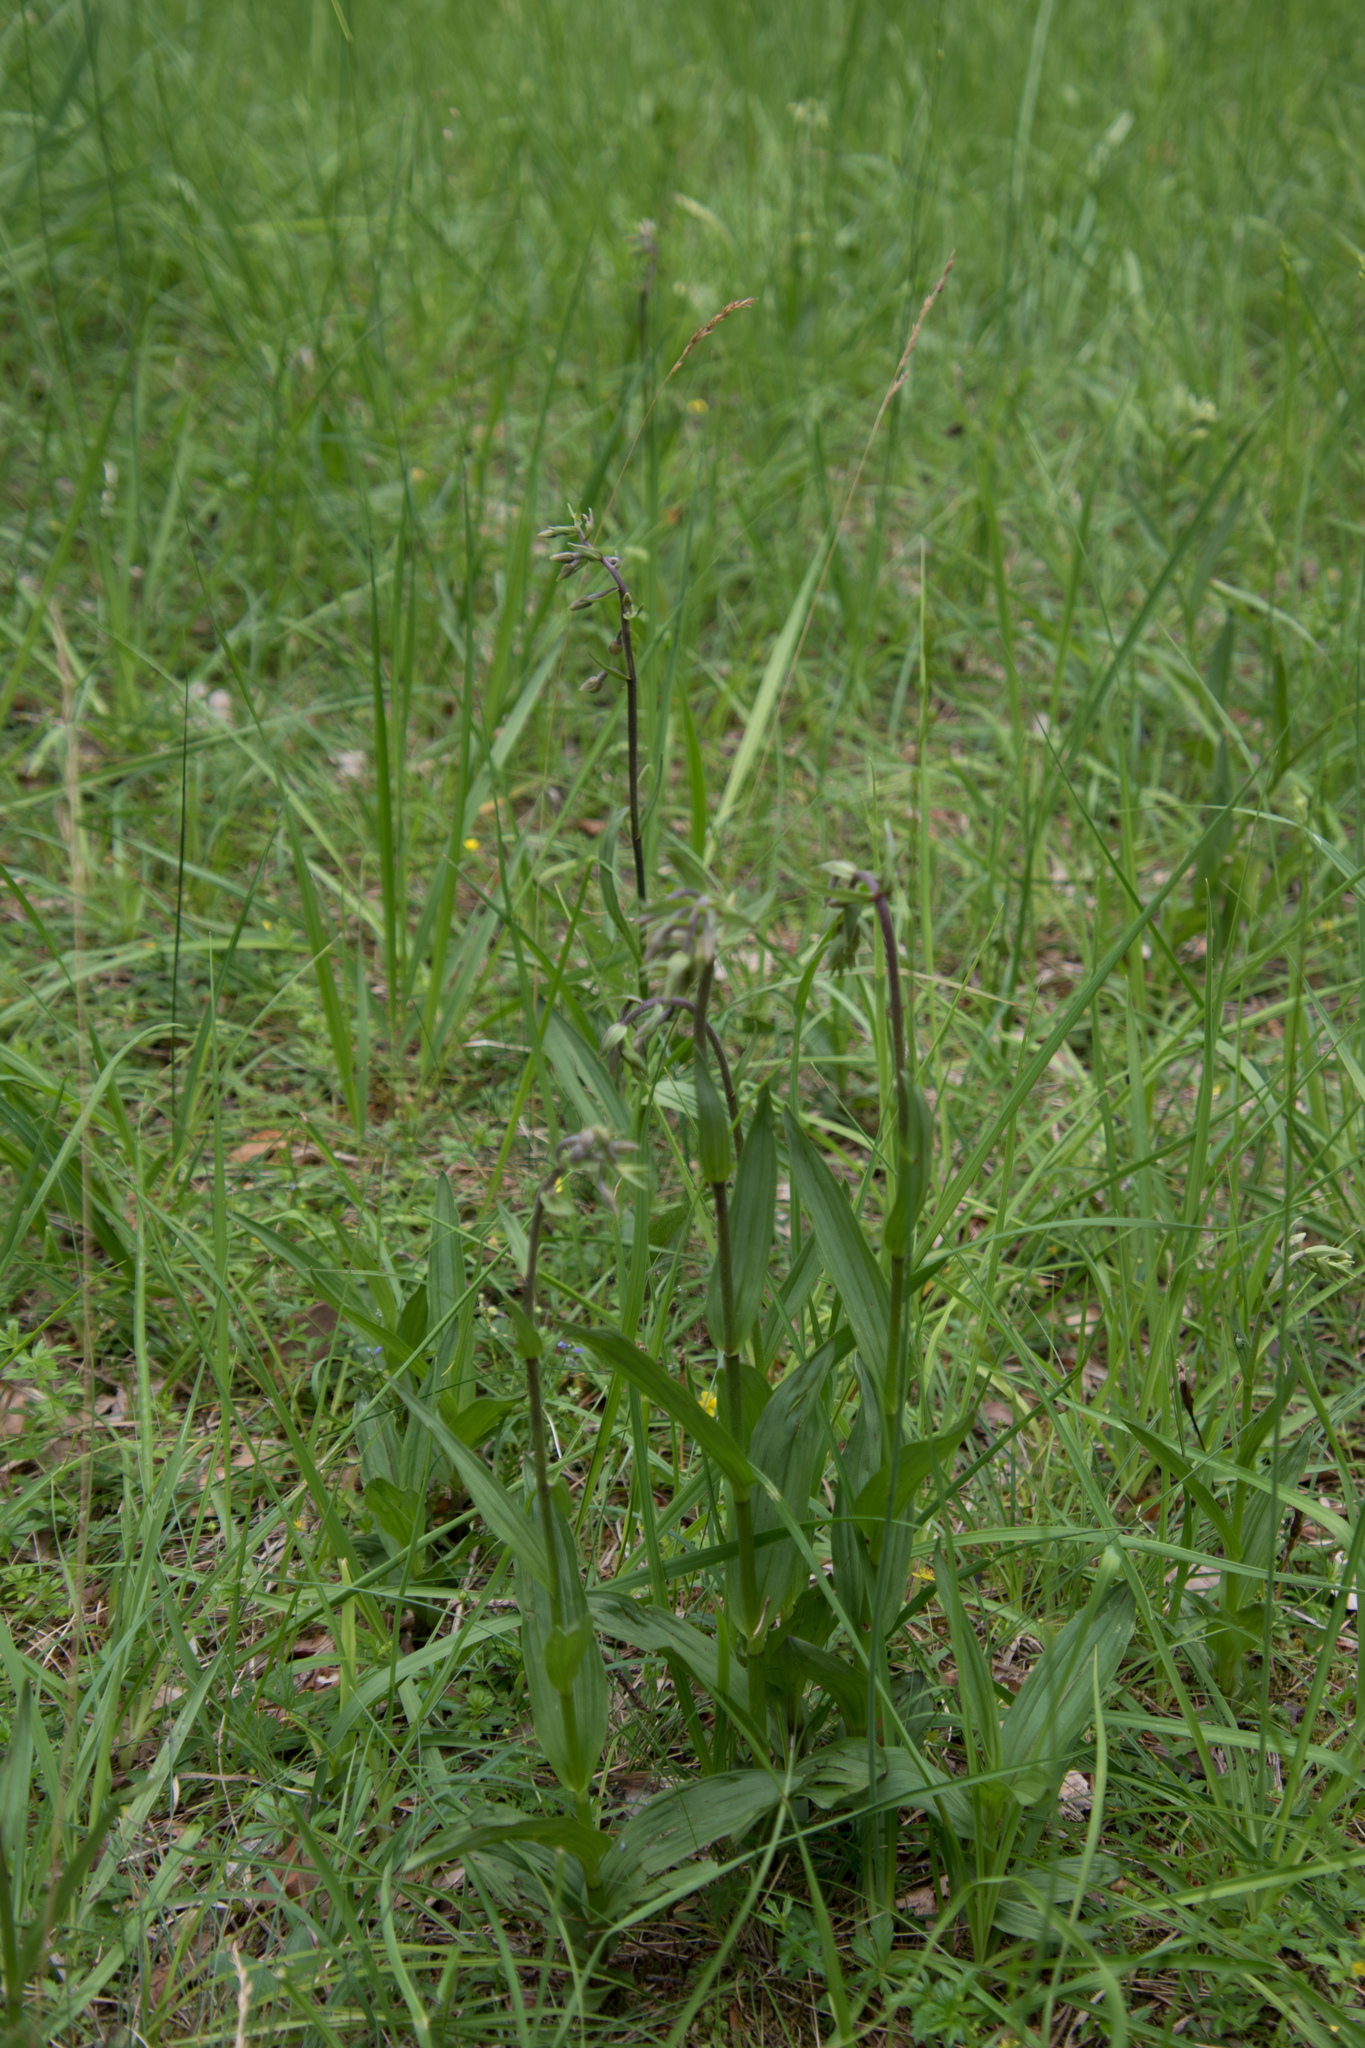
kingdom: Plantae
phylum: Tracheophyta
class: Liliopsida
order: Asparagales
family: Orchidaceae
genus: Epipactis
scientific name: Epipactis palustris
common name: Marsh helleborine
